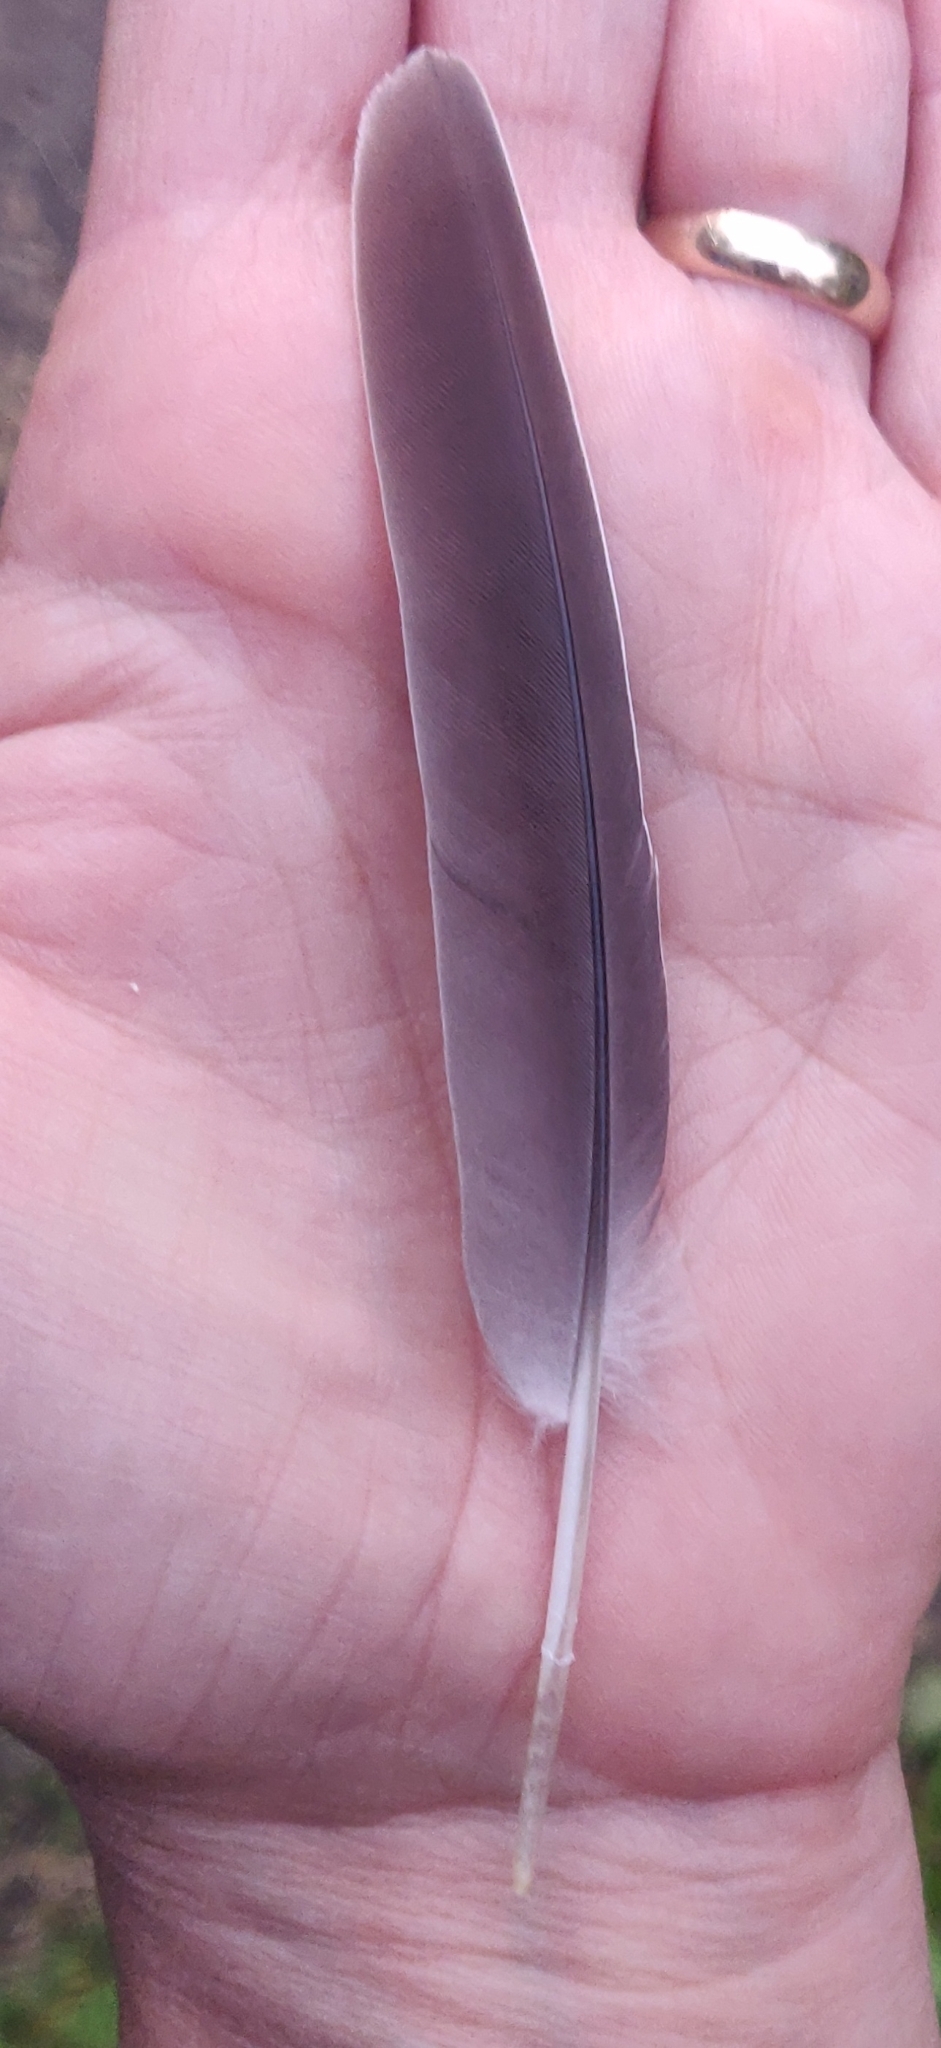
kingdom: Animalia
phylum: Chordata
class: Aves
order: Columbiformes
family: Columbidae
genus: Zenaida
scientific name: Zenaida macroura
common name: Mourning dove
